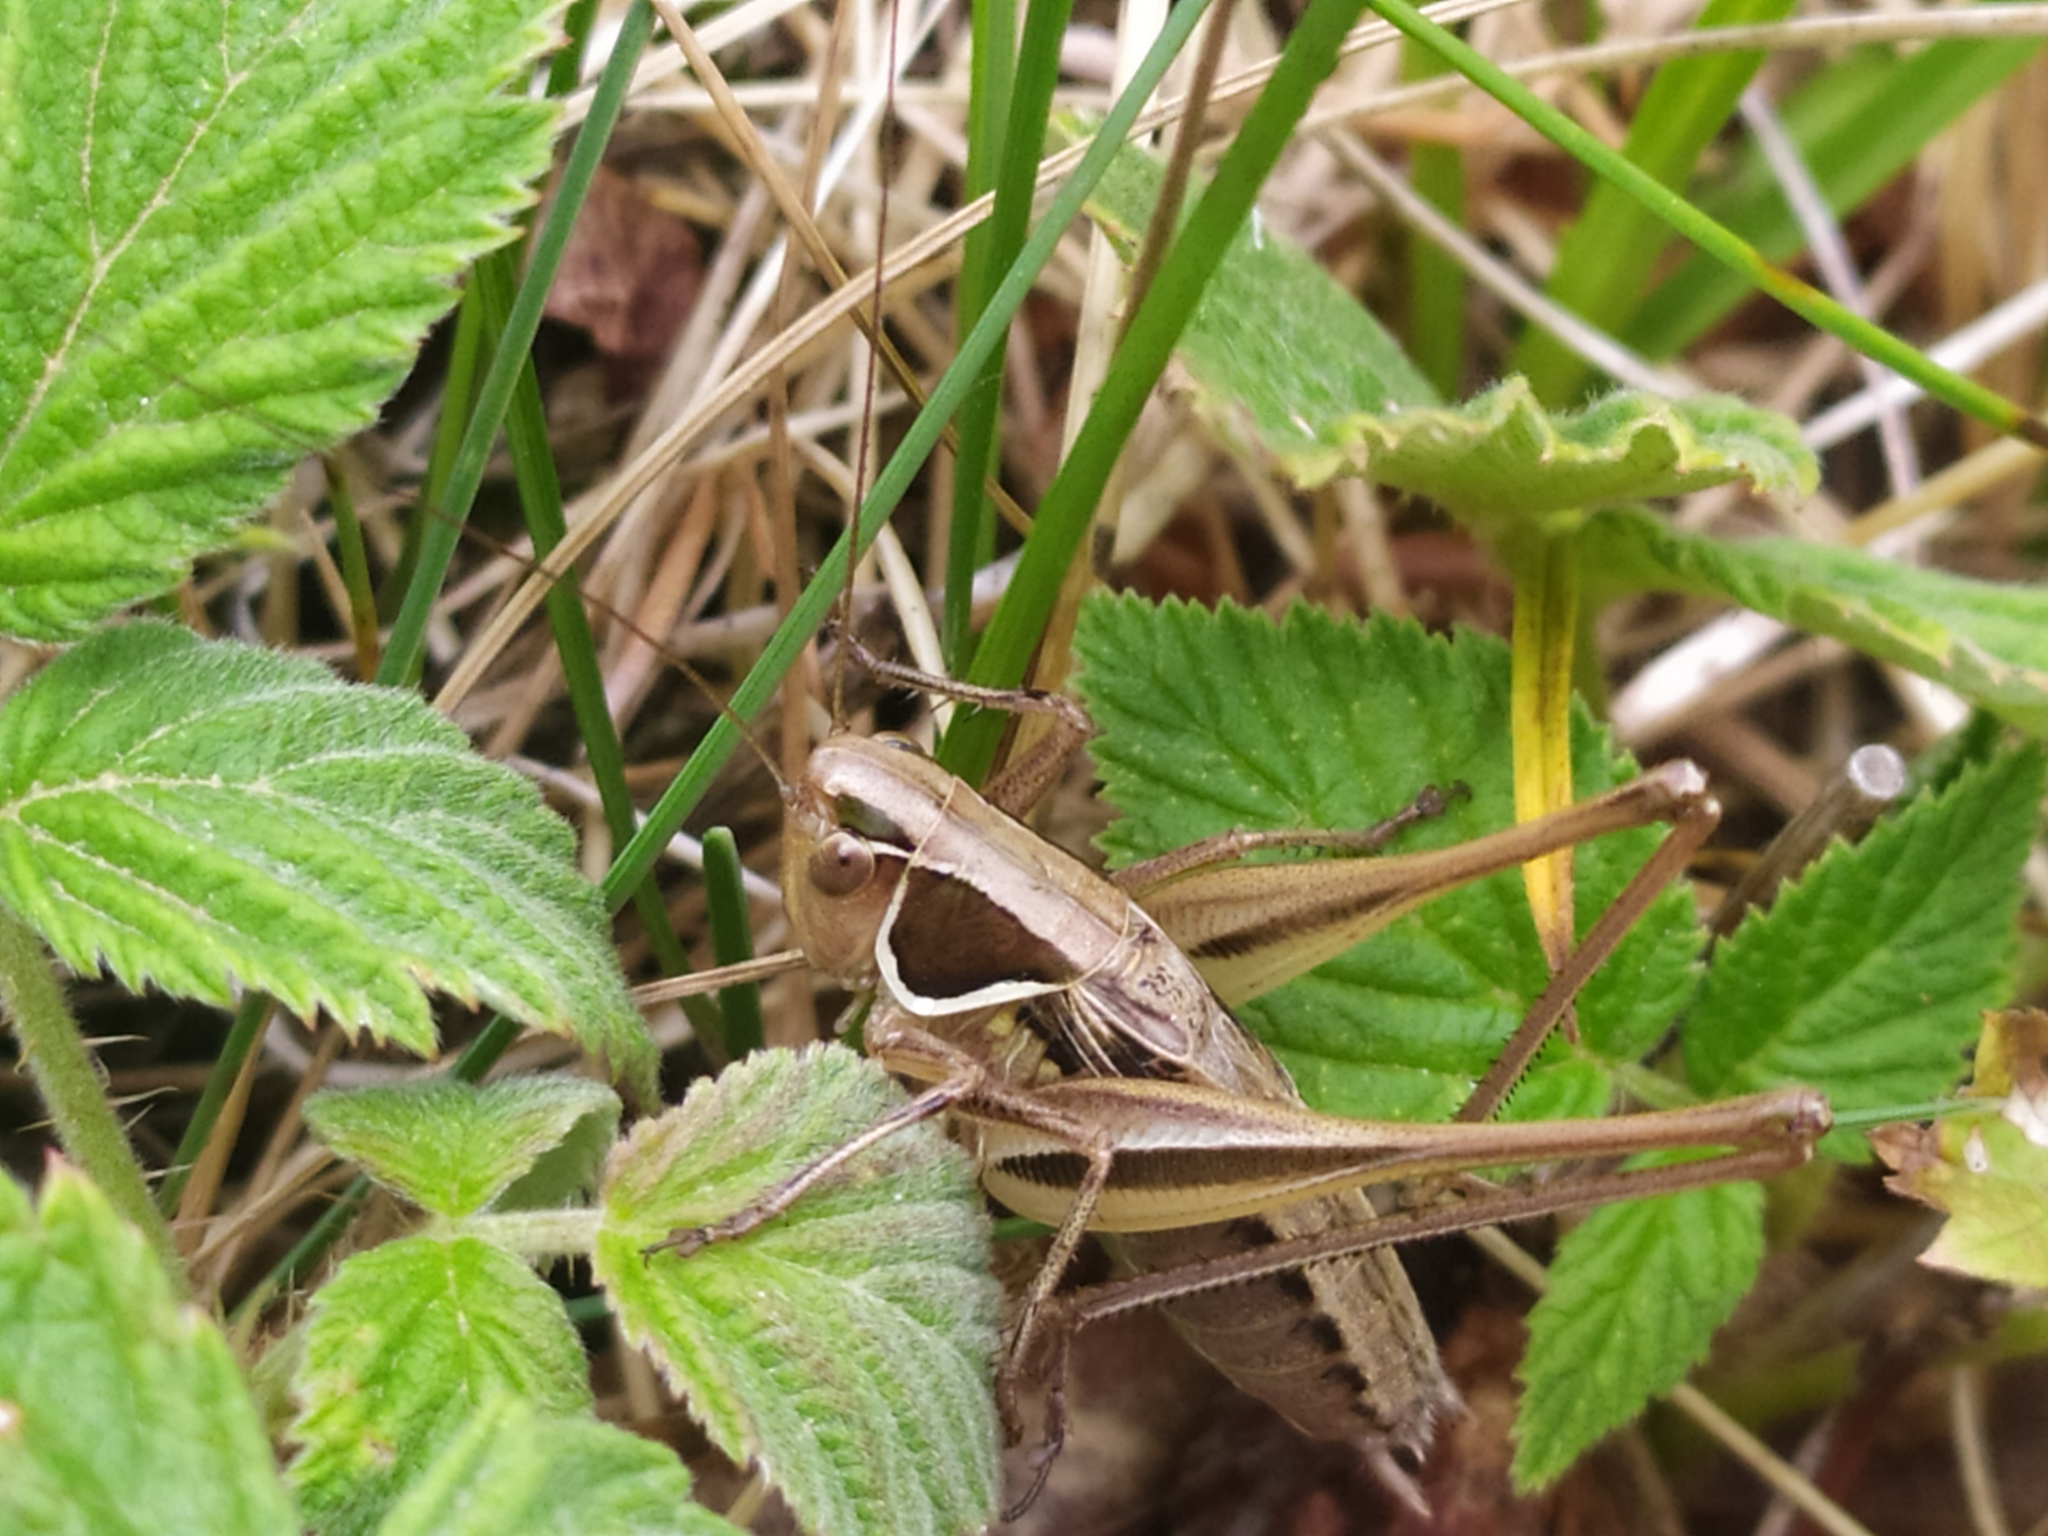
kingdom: Animalia
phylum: Arthropoda
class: Insecta
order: Orthoptera
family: Tettigoniidae
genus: Modestana
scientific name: Modestana modesta
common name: Common modest bush-cricket
